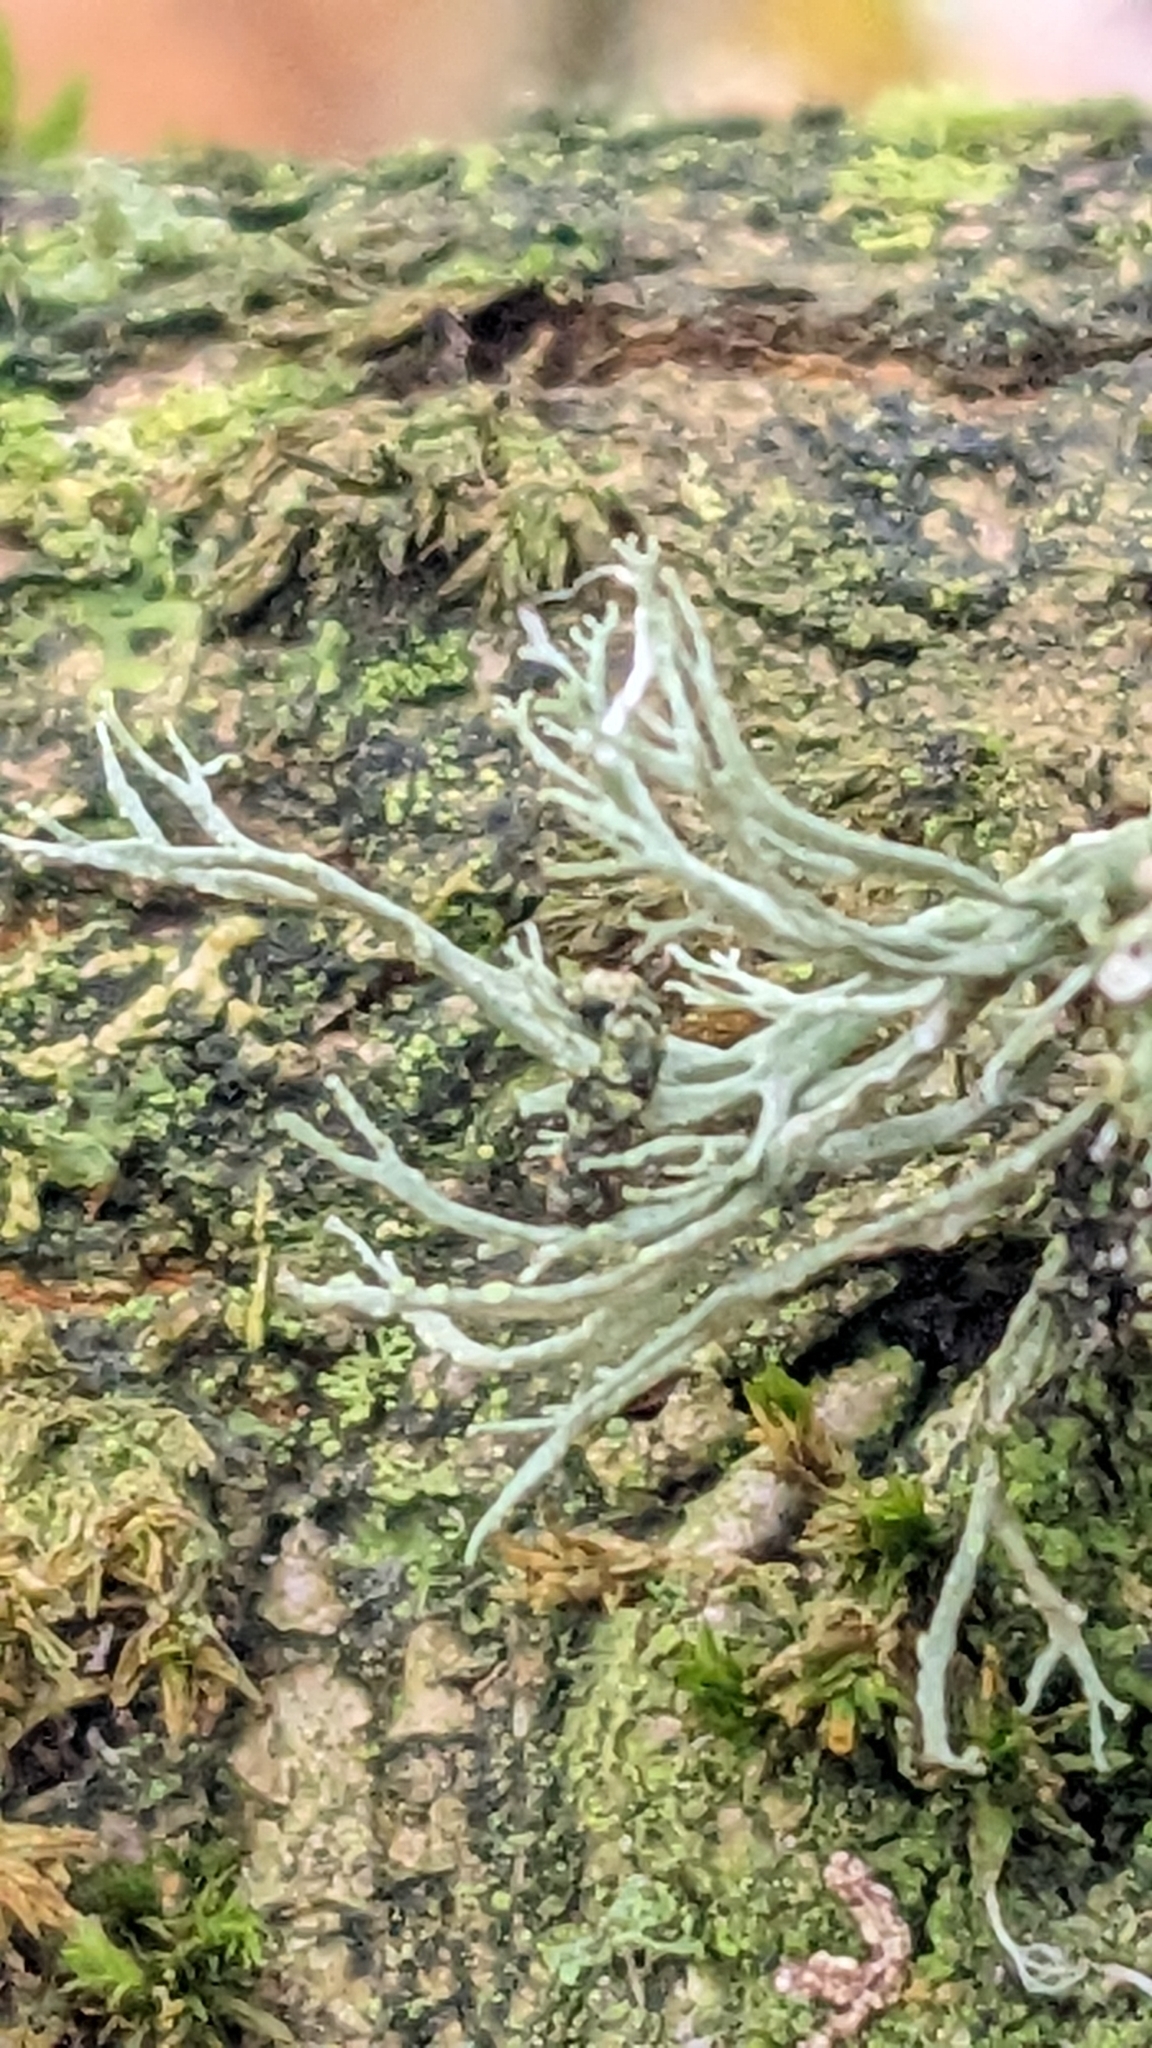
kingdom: Fungi
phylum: Ascomycota
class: Lecanoromycetes
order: Lecanorales
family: Ramalinaceae
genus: Ramalina
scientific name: Ramalina farinacea
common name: Farinose cartilage lichen
